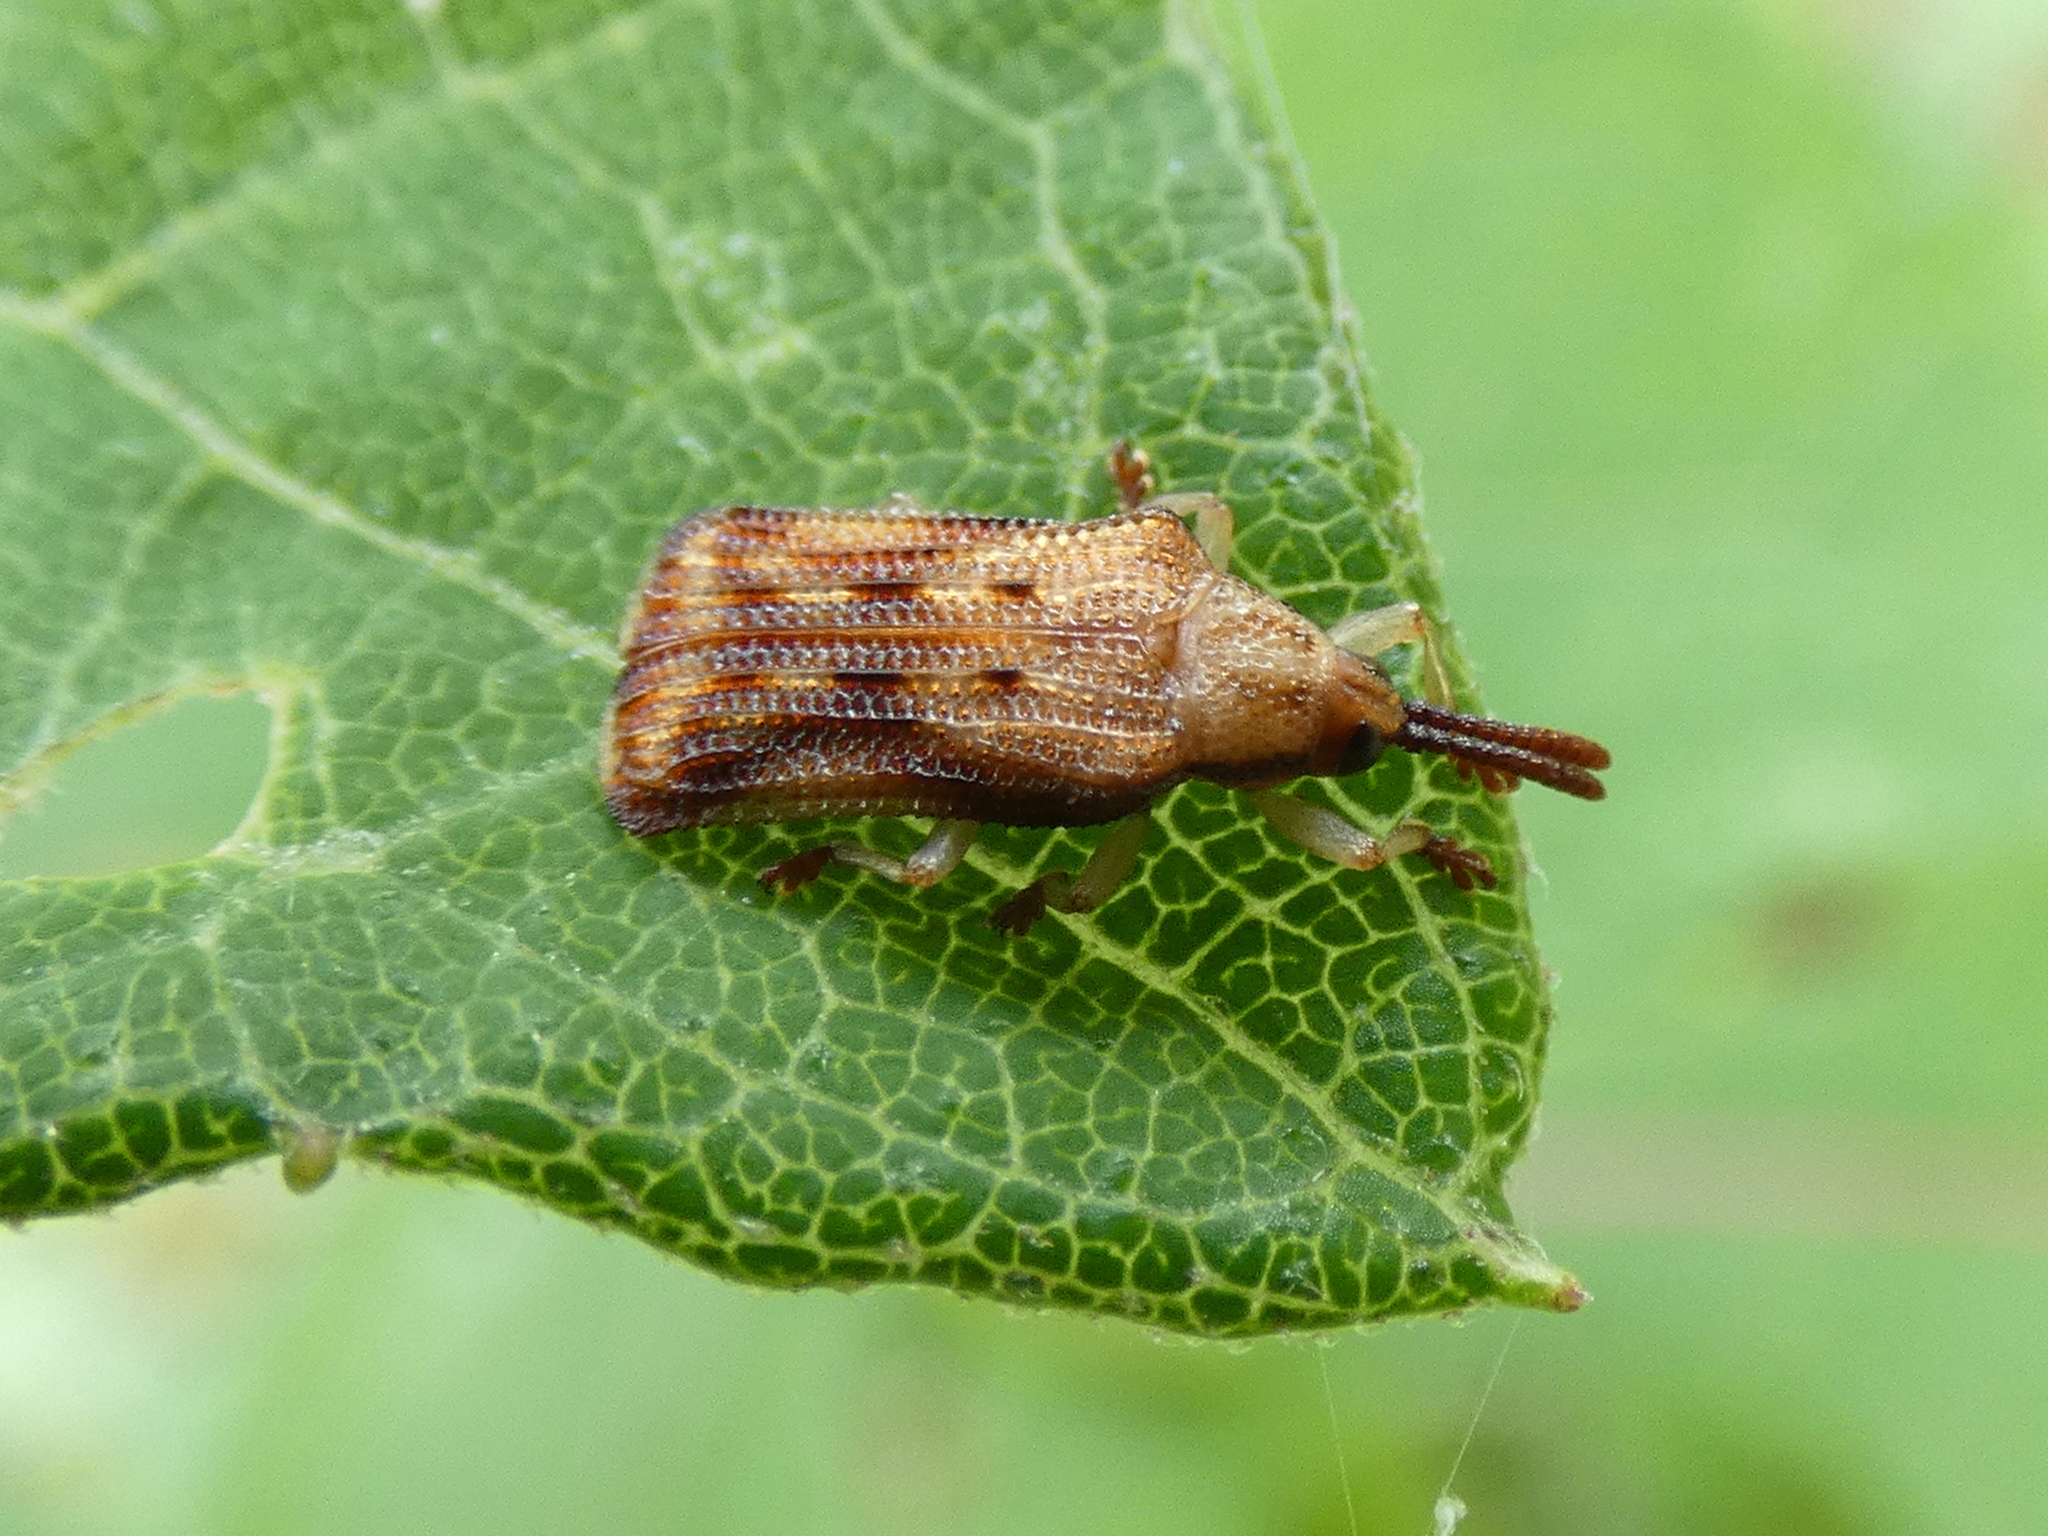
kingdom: Animalia
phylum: Arthropoda
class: Insecta
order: Coleoptera
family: Chrysomelidae
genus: Baliosus
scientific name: Baliosus nervosus
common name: Basswood leaf miner
